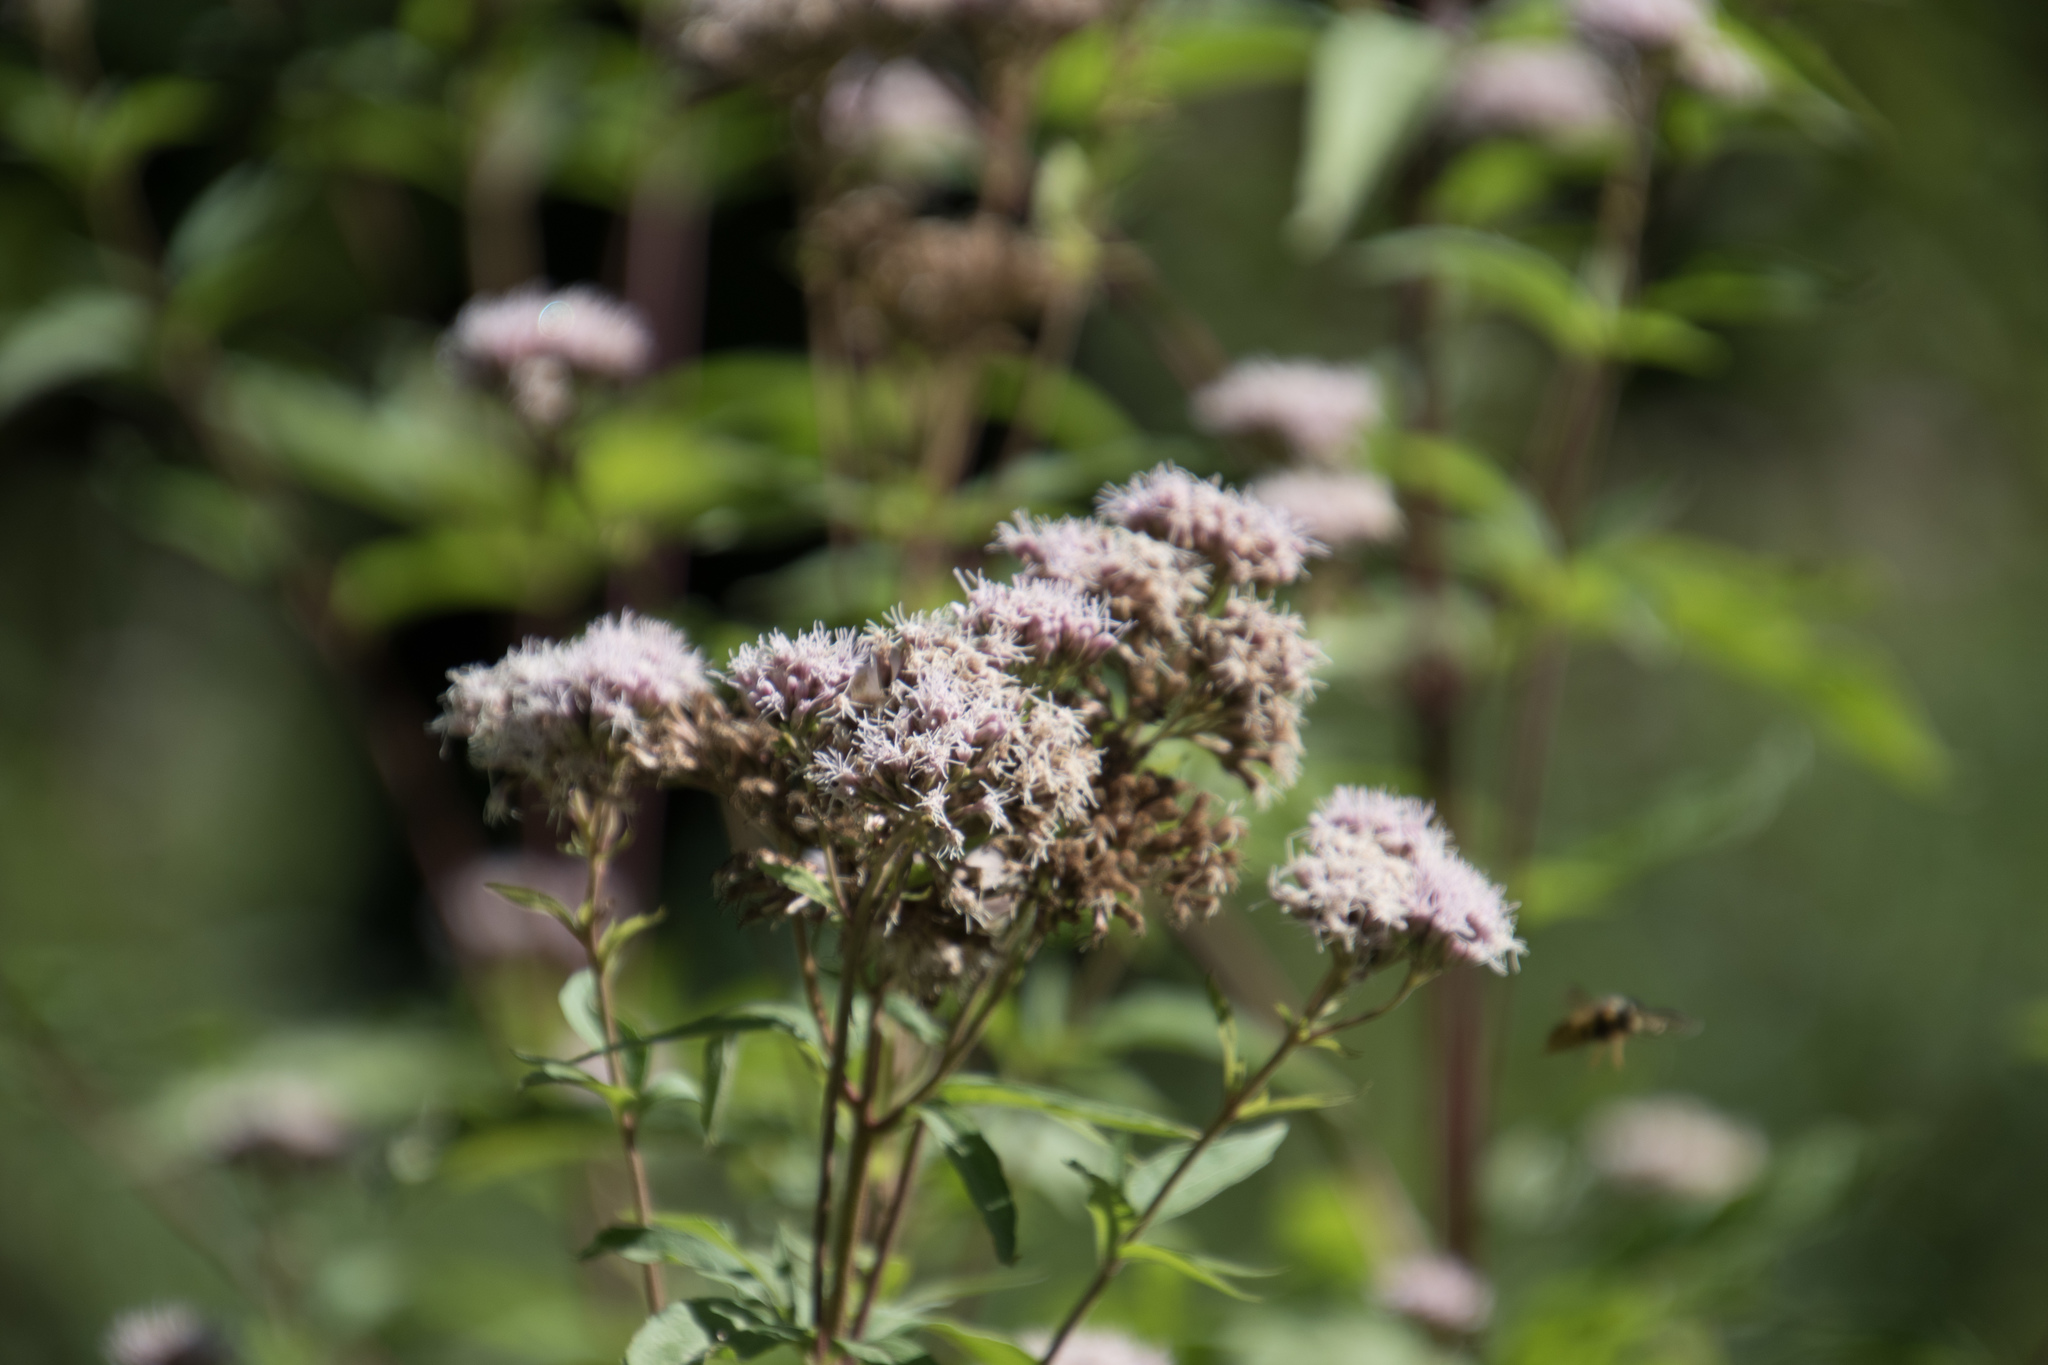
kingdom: Plantae
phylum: Tracheophyta
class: Magnoliopsida
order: Asterales
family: Asteraceae
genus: Eupatorium
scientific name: Eupatorium cannabinum
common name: Hemp-agrimony
